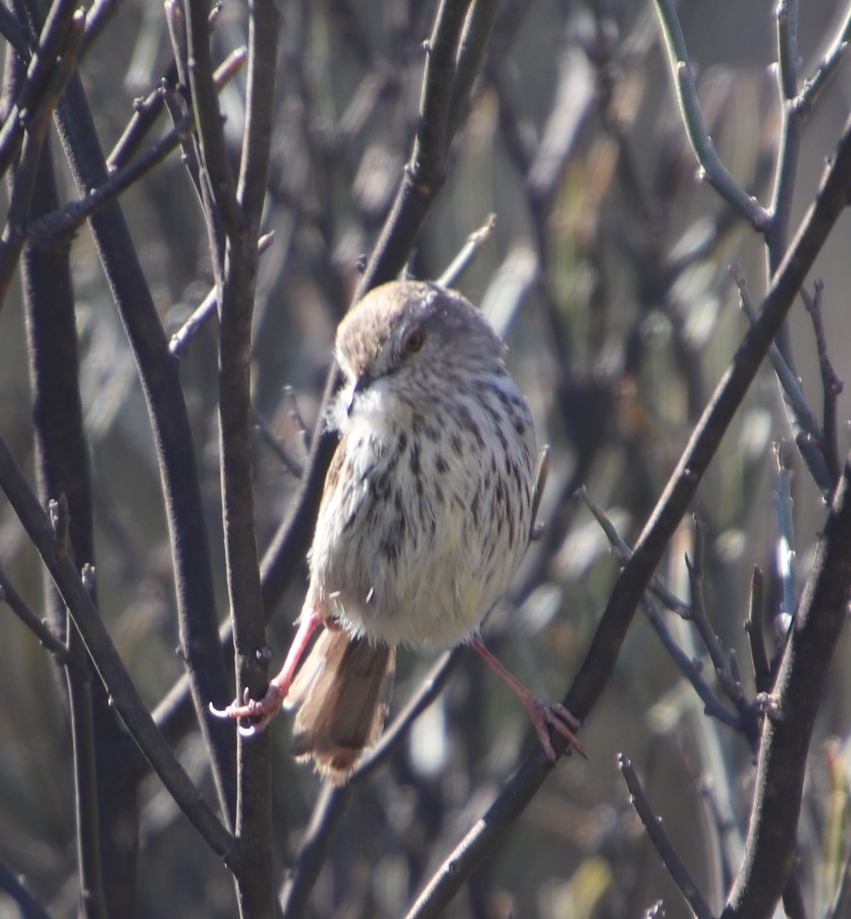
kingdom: Animalia
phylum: Chordata
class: Aves
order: Passeriformes
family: Cisticolidae
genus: Prinia
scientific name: Prinia maculosa
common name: Karoo prinia
